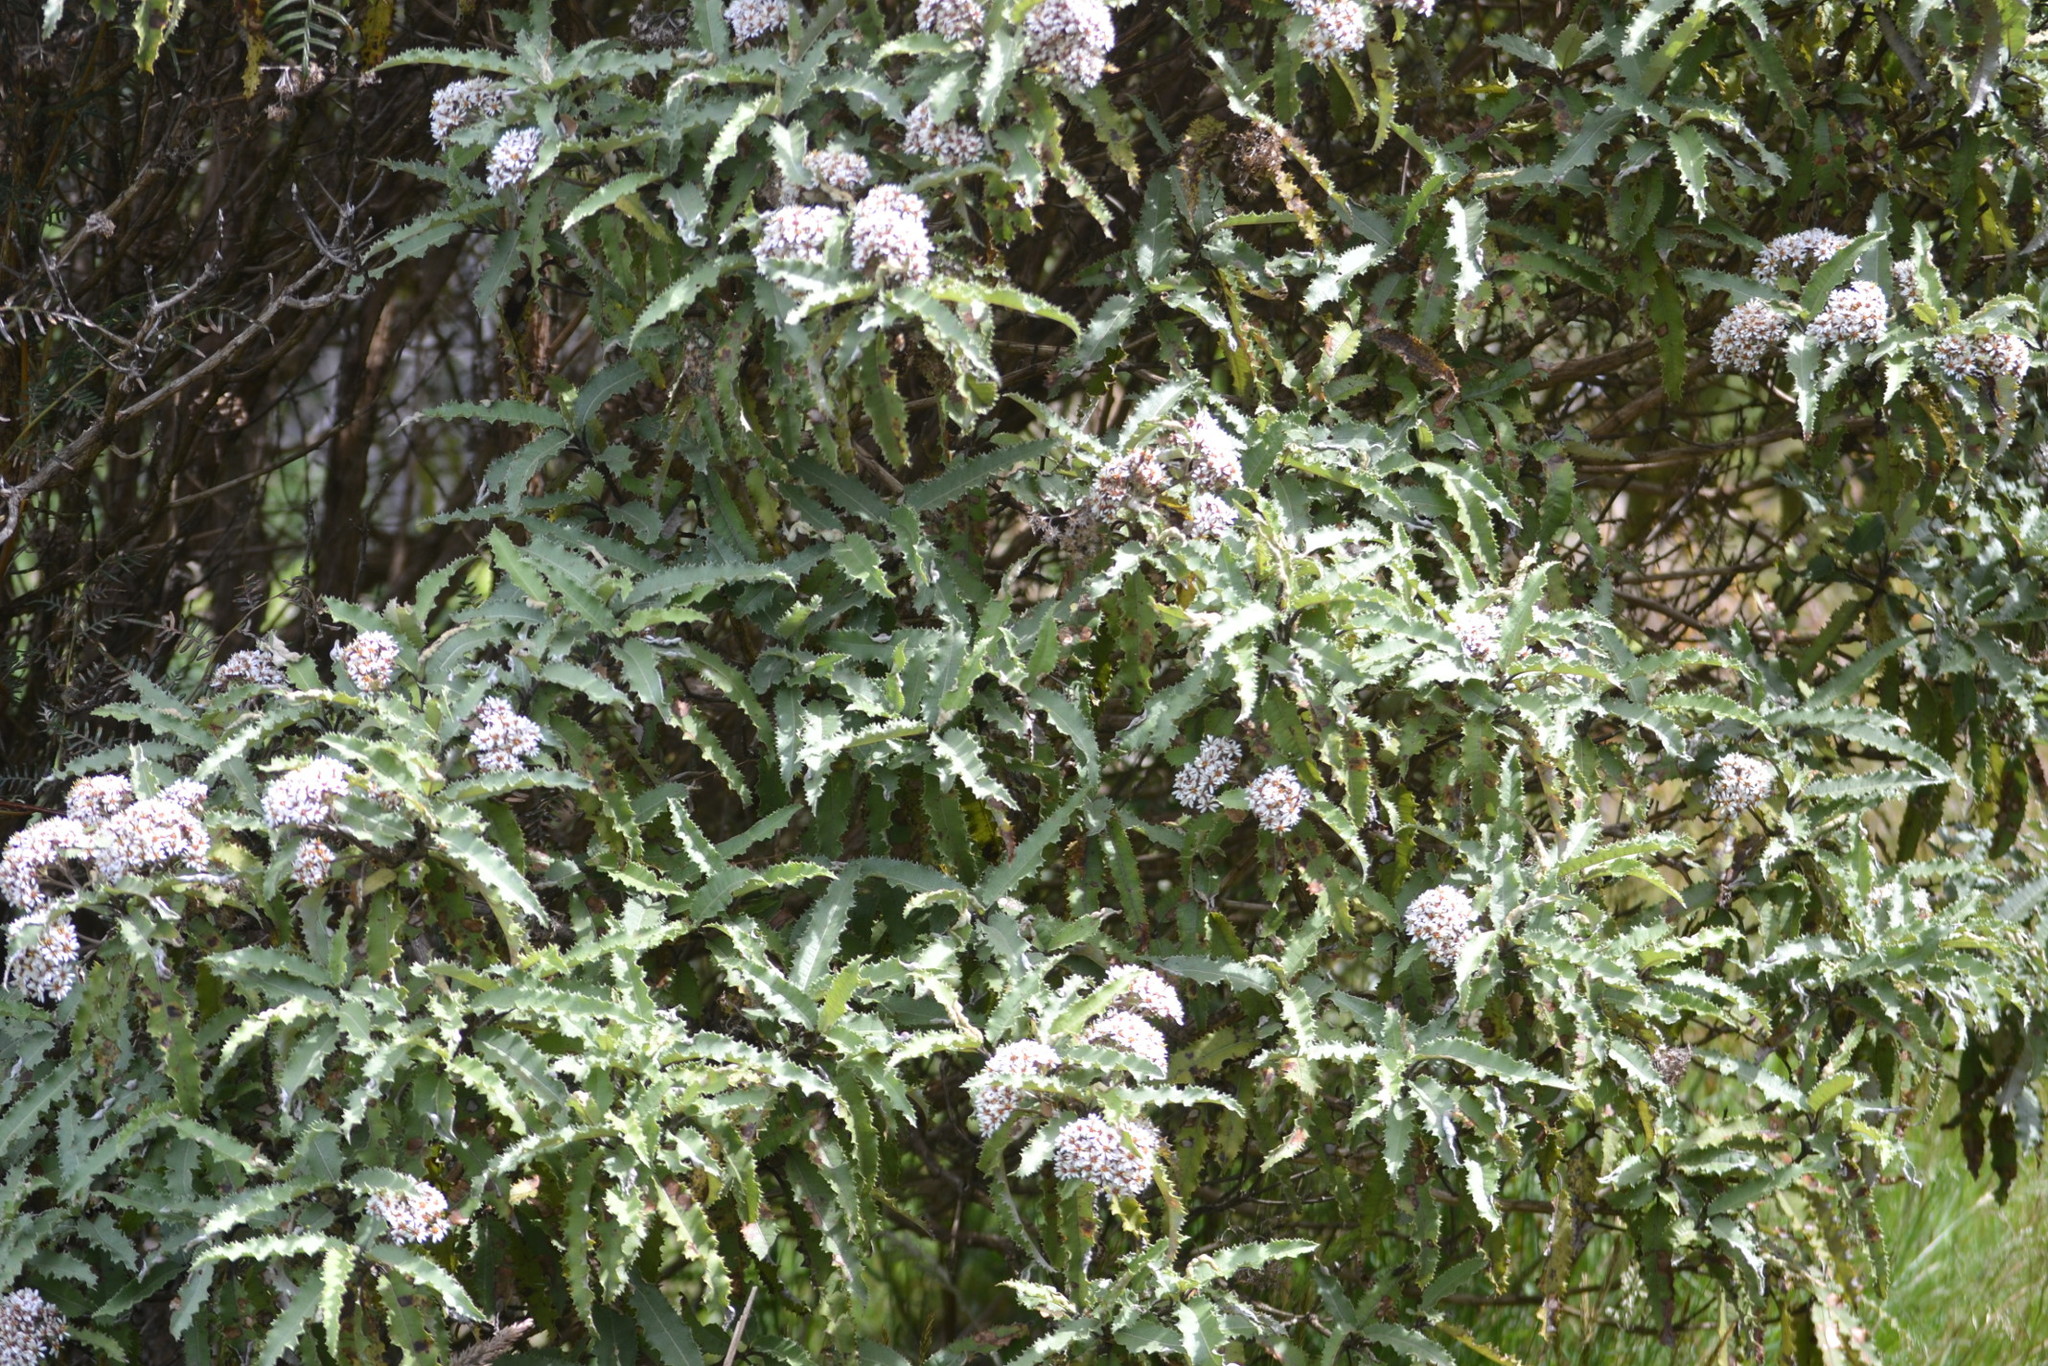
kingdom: Plantae
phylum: Tracheophyta
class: Magnoliopsida
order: Asterales
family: Asteraceae
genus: Olearia
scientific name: Olearia ilicifolia
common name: Maori-holly
